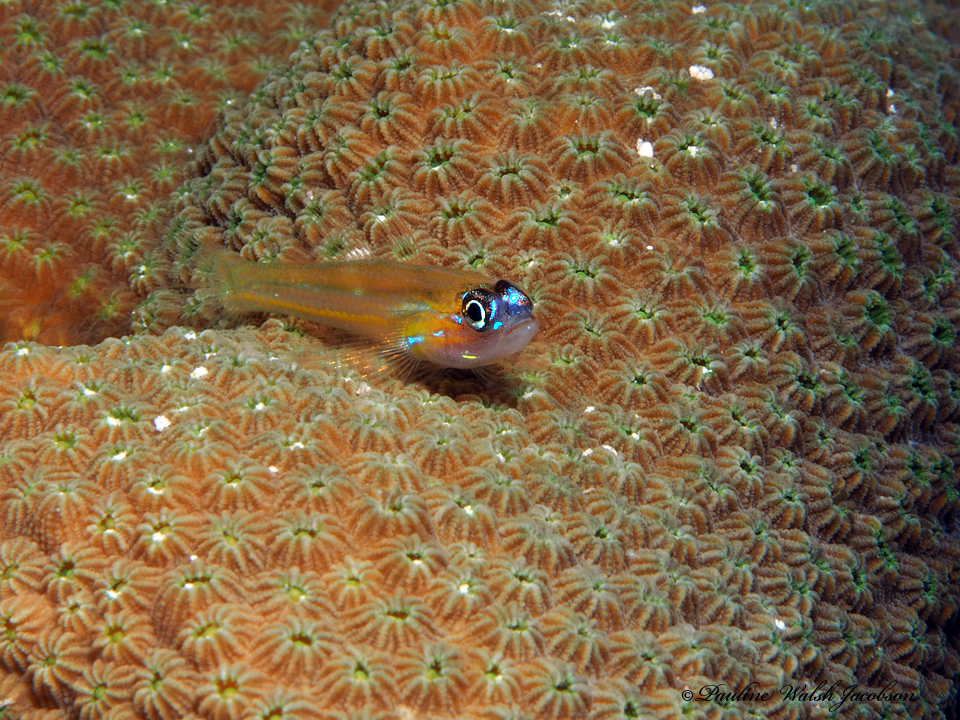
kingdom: Animalia
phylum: Chordata
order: Perciformes
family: Gobiidae
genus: Coryphopterus
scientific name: Coryphopterus lipernes
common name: Peppermint goby
